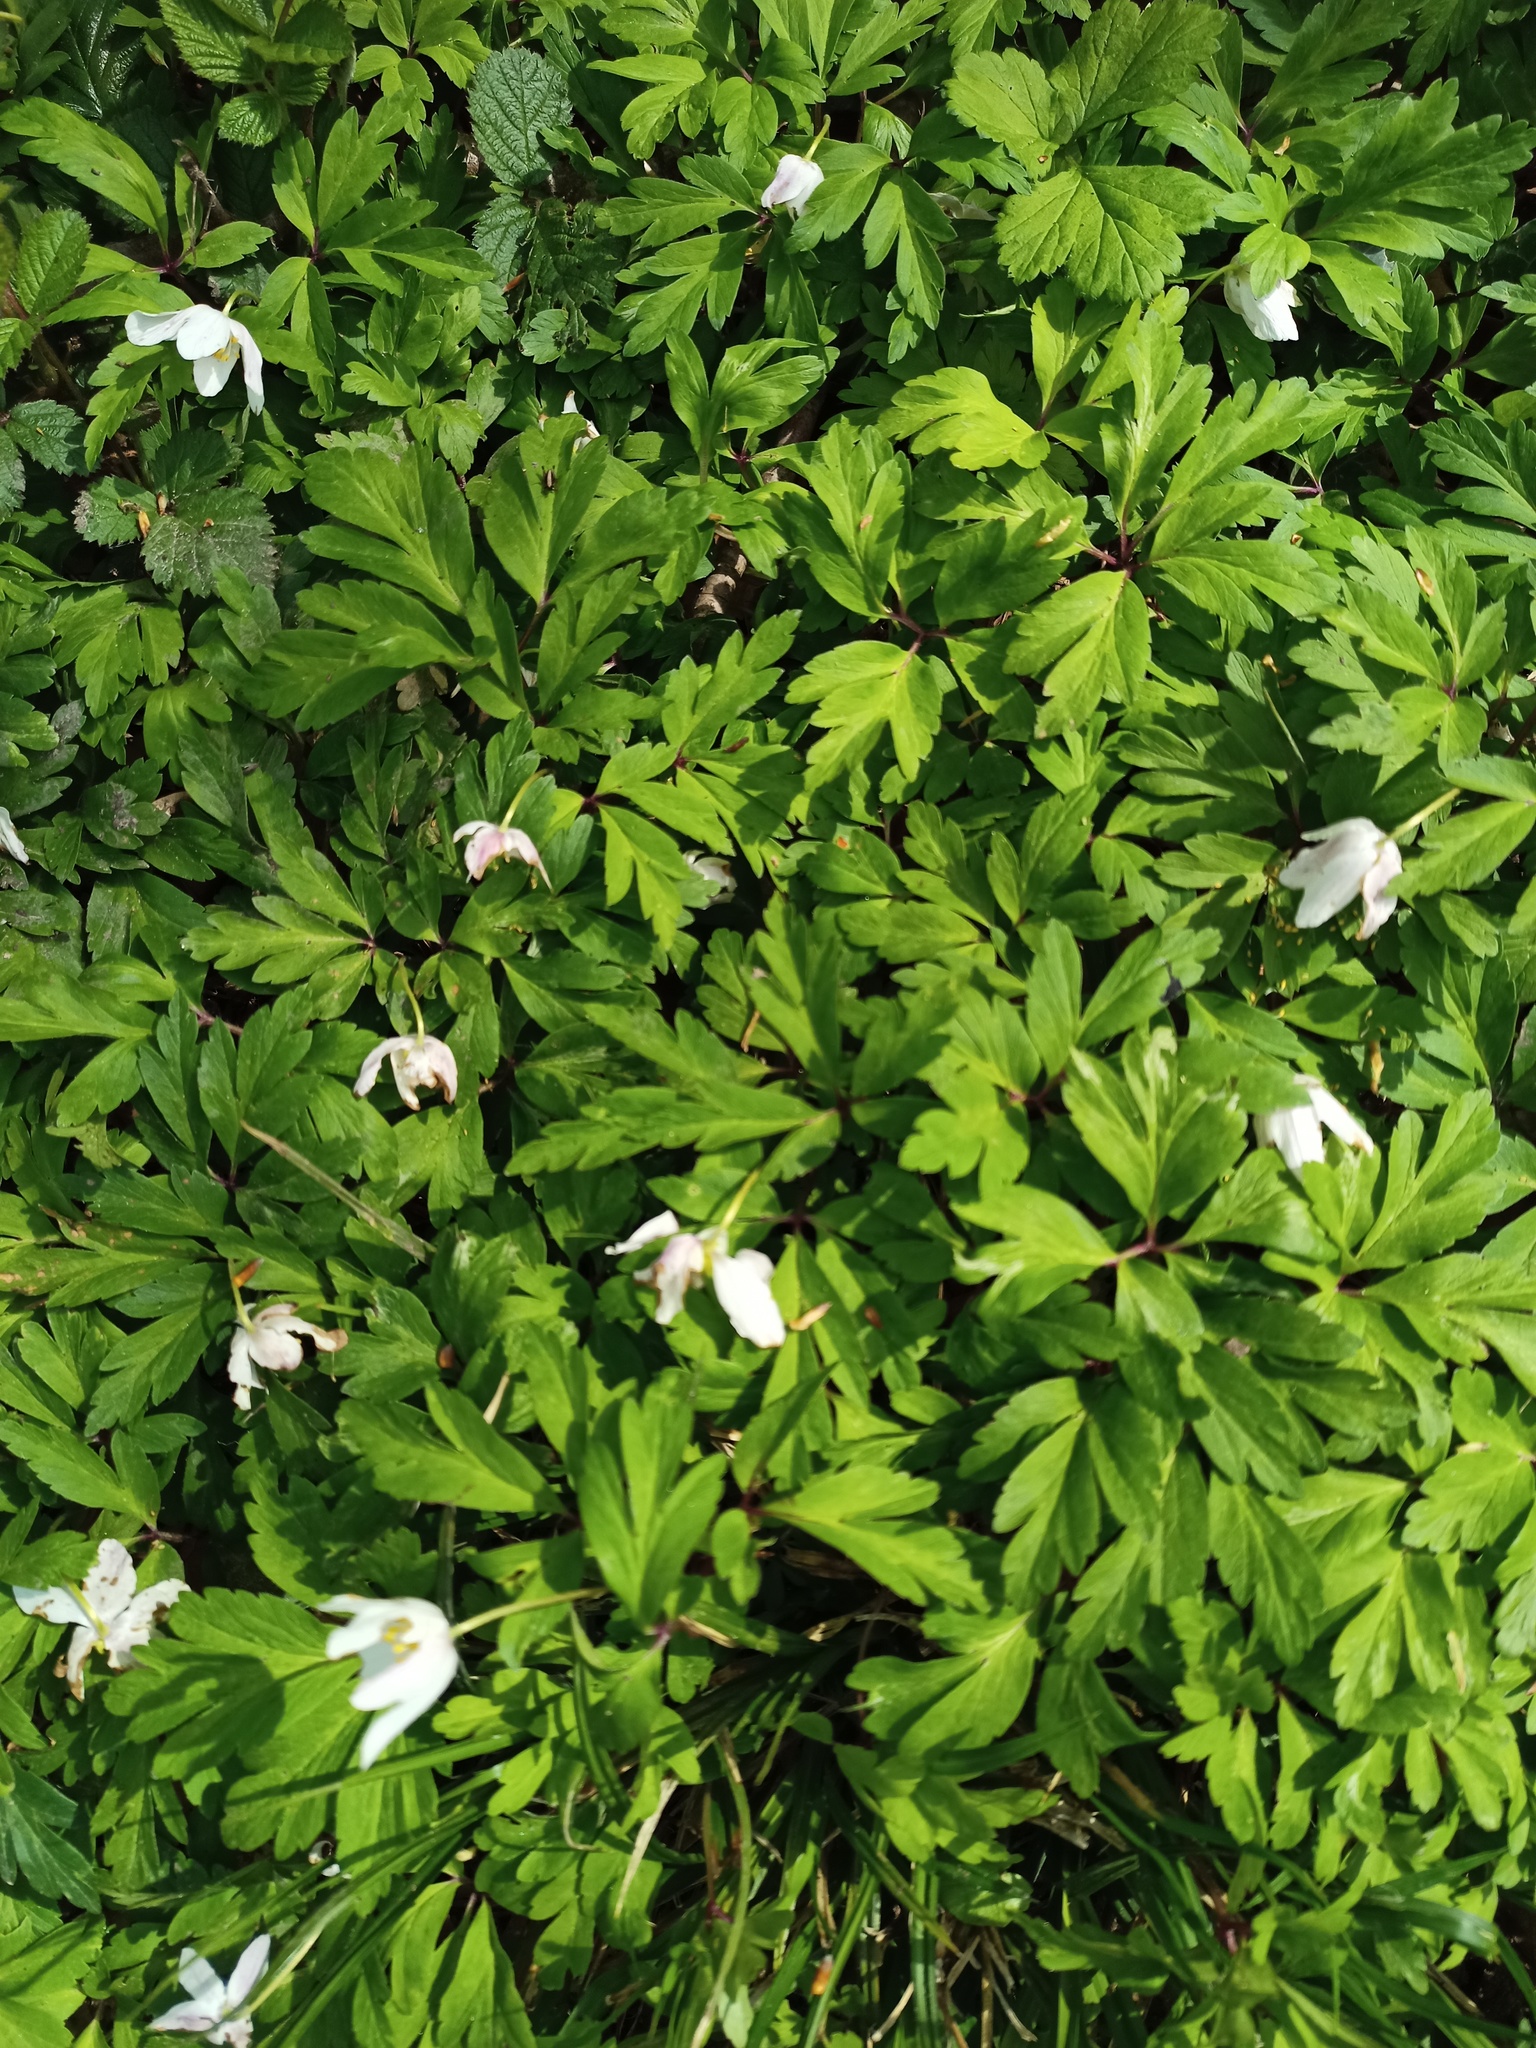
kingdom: Plantae
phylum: Tracheophyta
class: Magnoliopsida
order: Ranunculales
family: Ranunculaceae
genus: Anemone
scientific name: Anemone nemorosa
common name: Wood anemone
